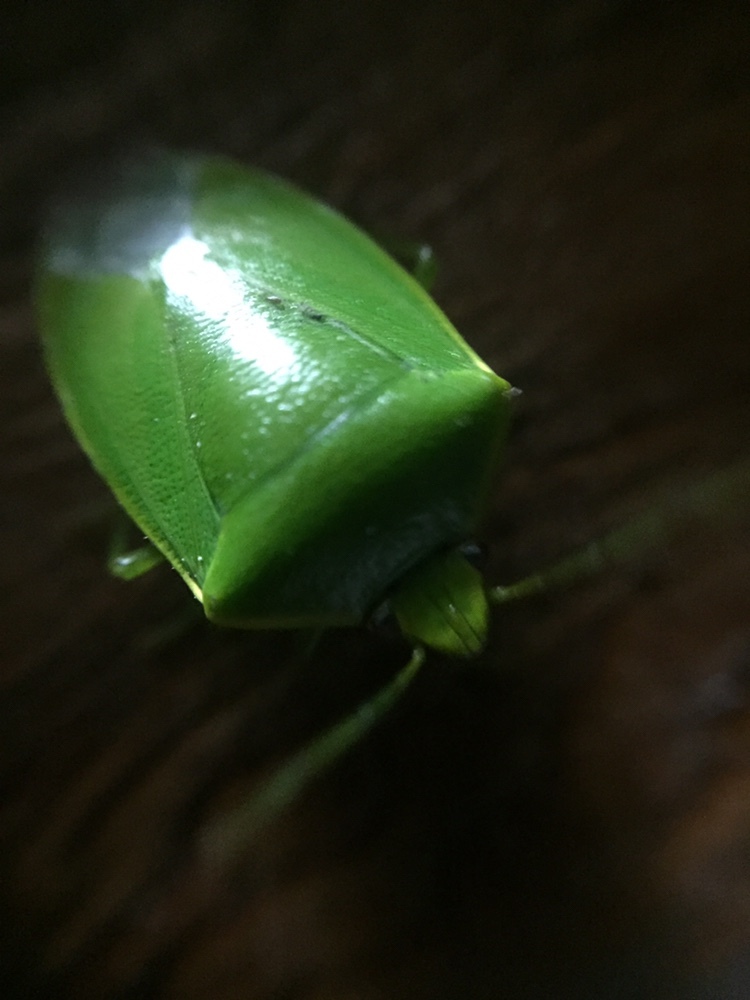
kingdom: Animalia
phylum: Arthropoda
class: Insecta
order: Hemiptera
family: Pentatomidae
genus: Glaucias
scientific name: Glaucias amyota
